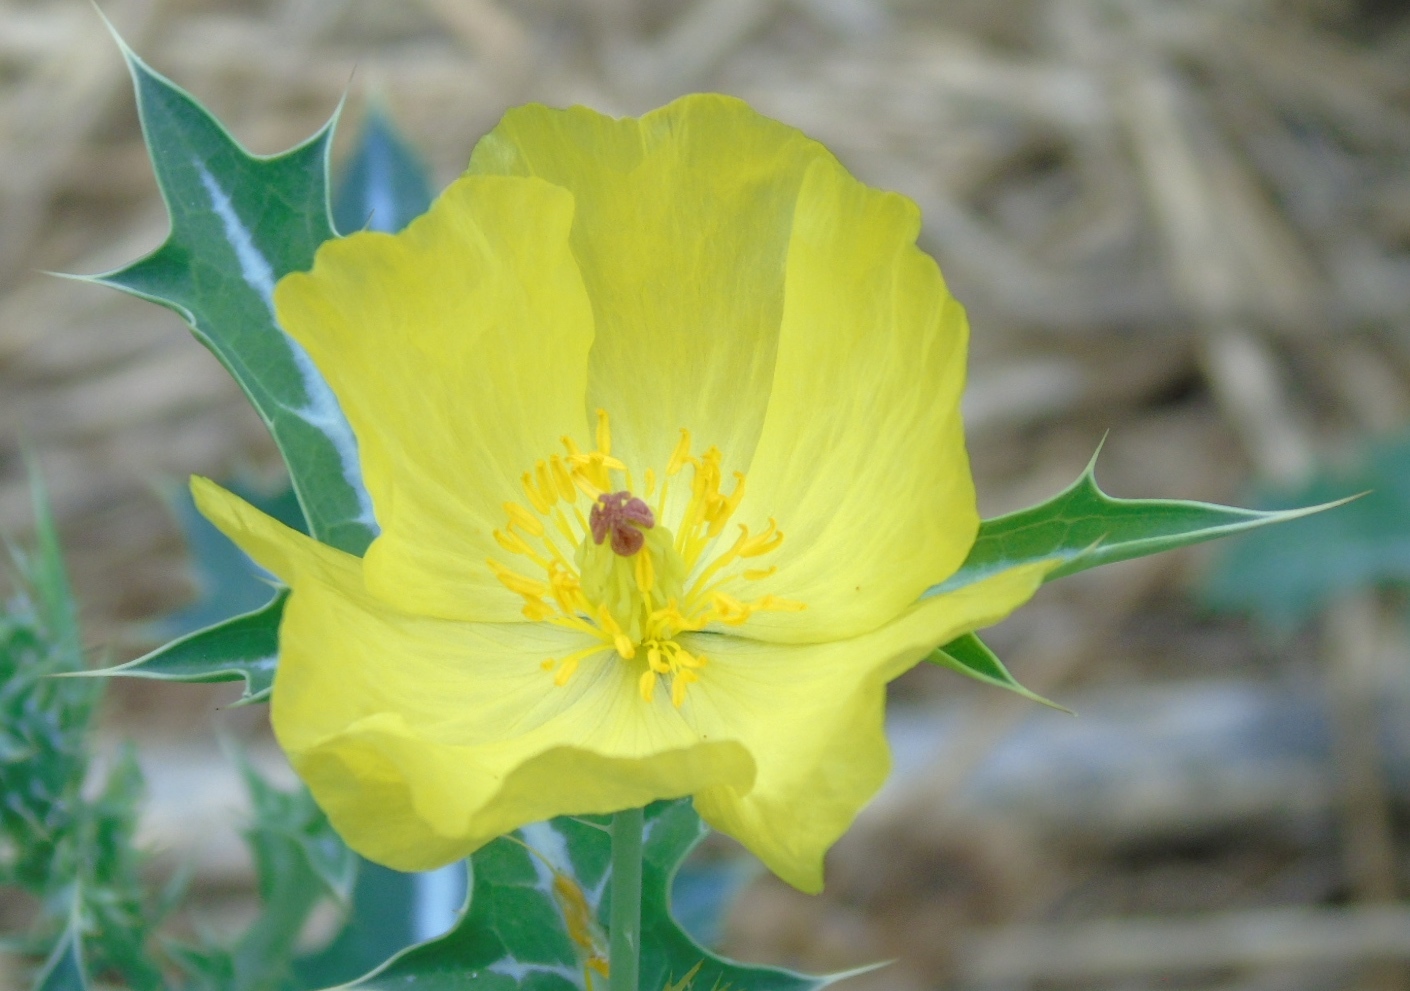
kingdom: Plantae
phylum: Tracheophyta
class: Magnoliopsida
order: Ranunculales
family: Papaveraceae
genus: Argemone
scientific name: Argemone mexicana
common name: Mexican poppy
